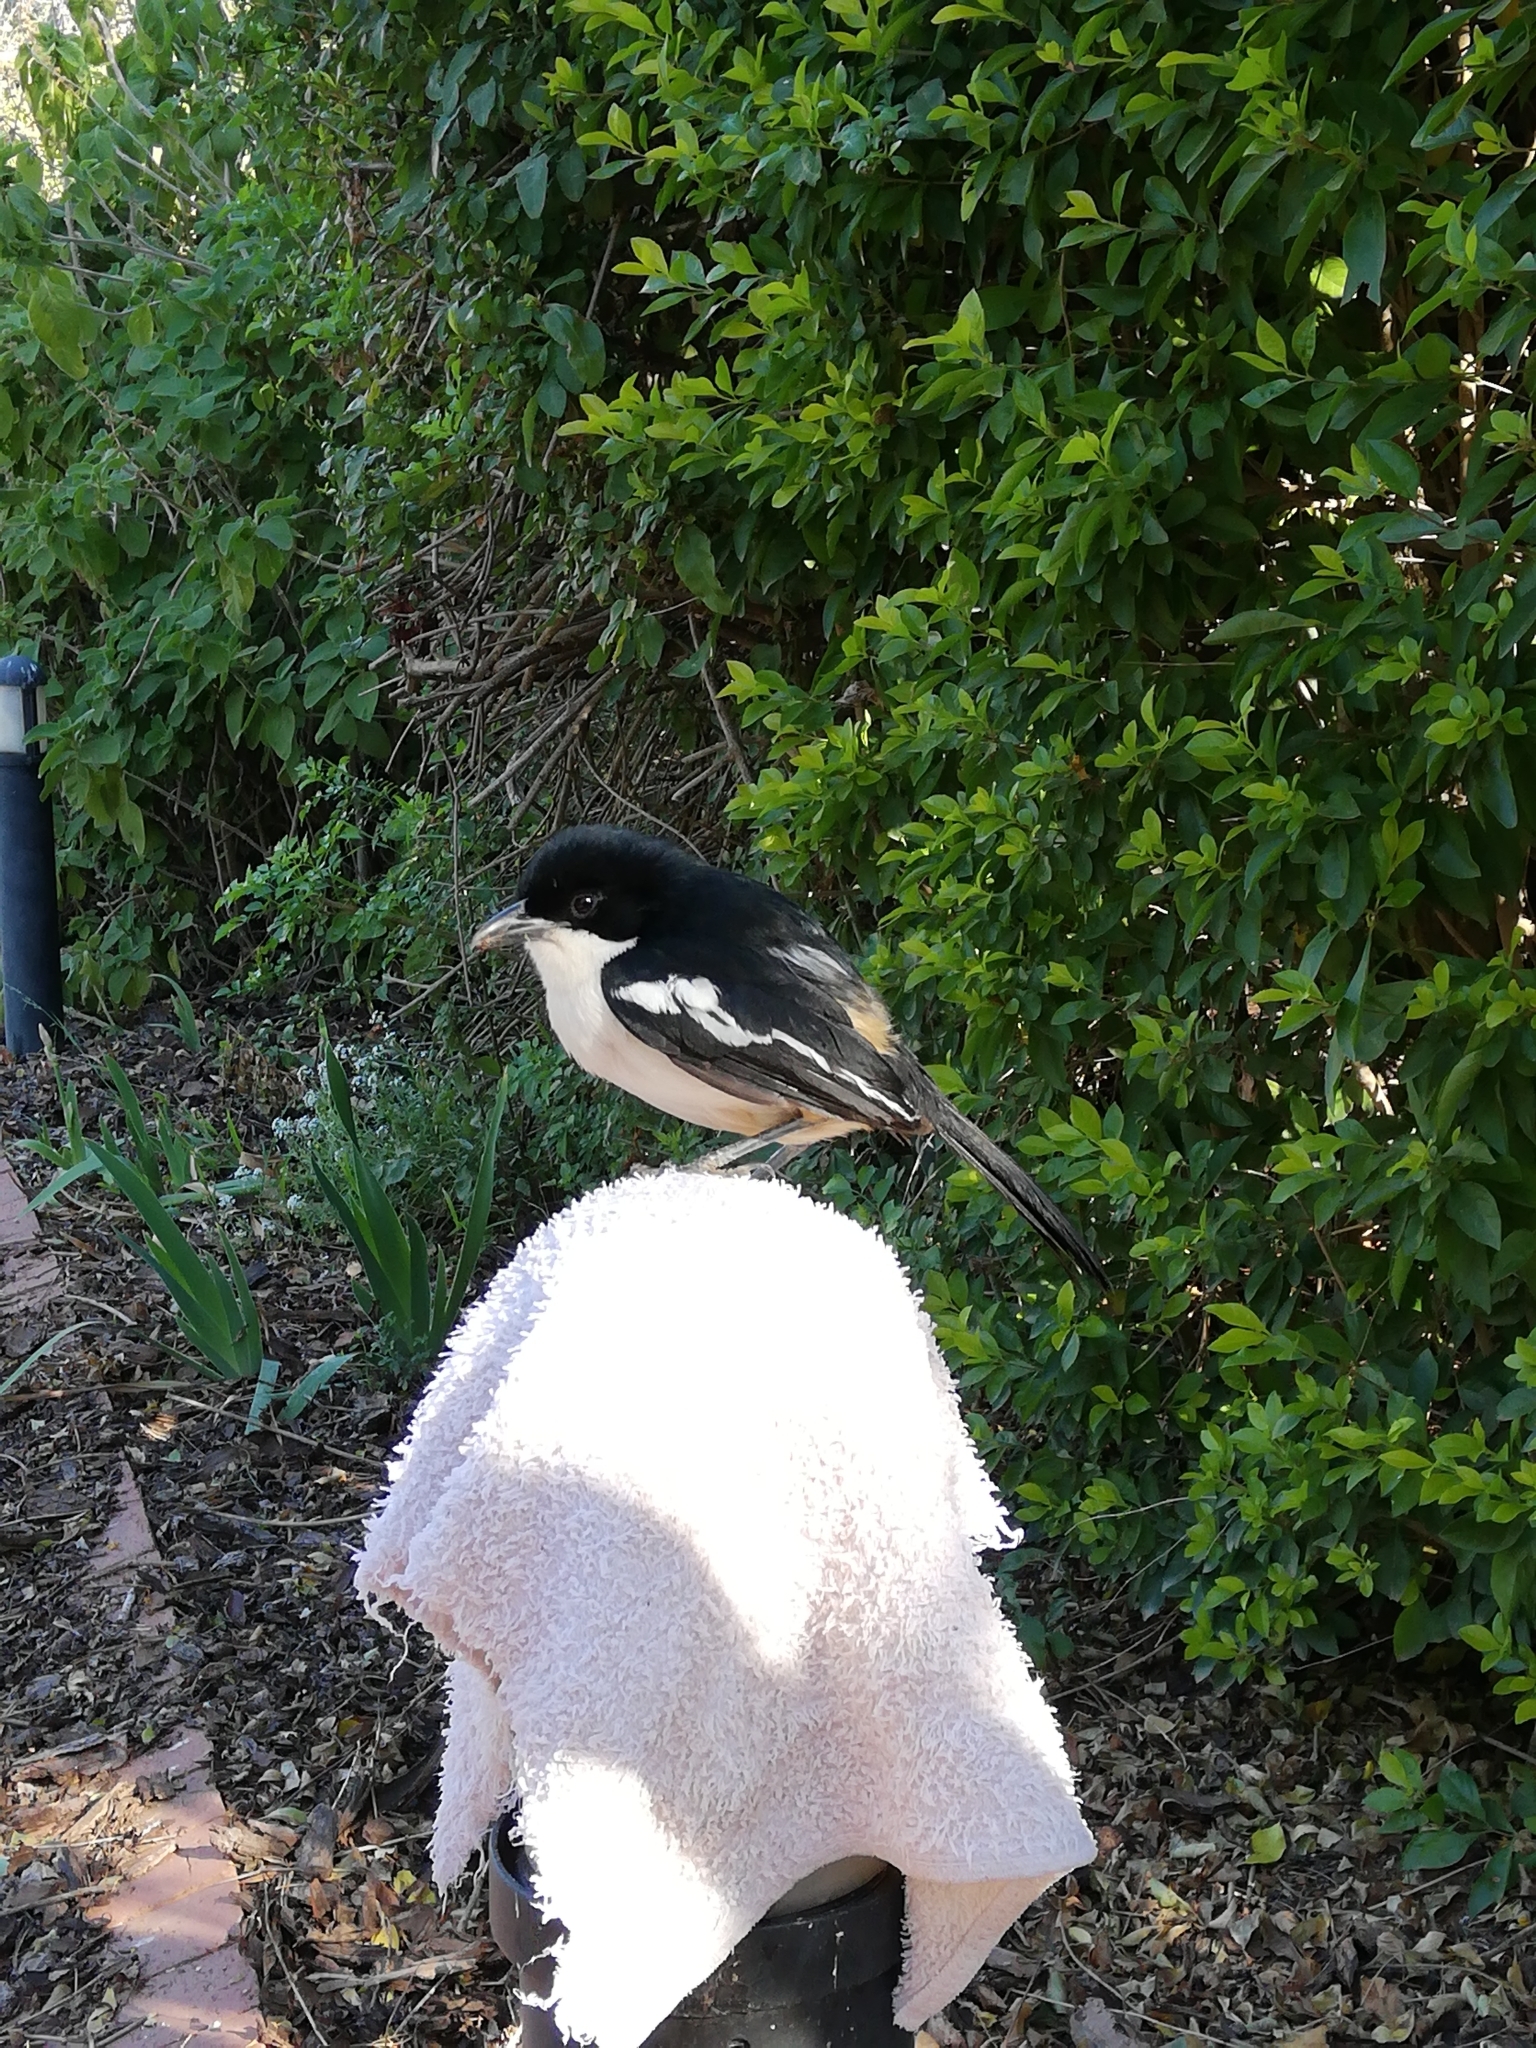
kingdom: Animalia
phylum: Chordata
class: Aves
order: Passeriformes
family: Malaconotidae
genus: Laniarius
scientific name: Laniarius ferrugineus
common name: Southern boubou
